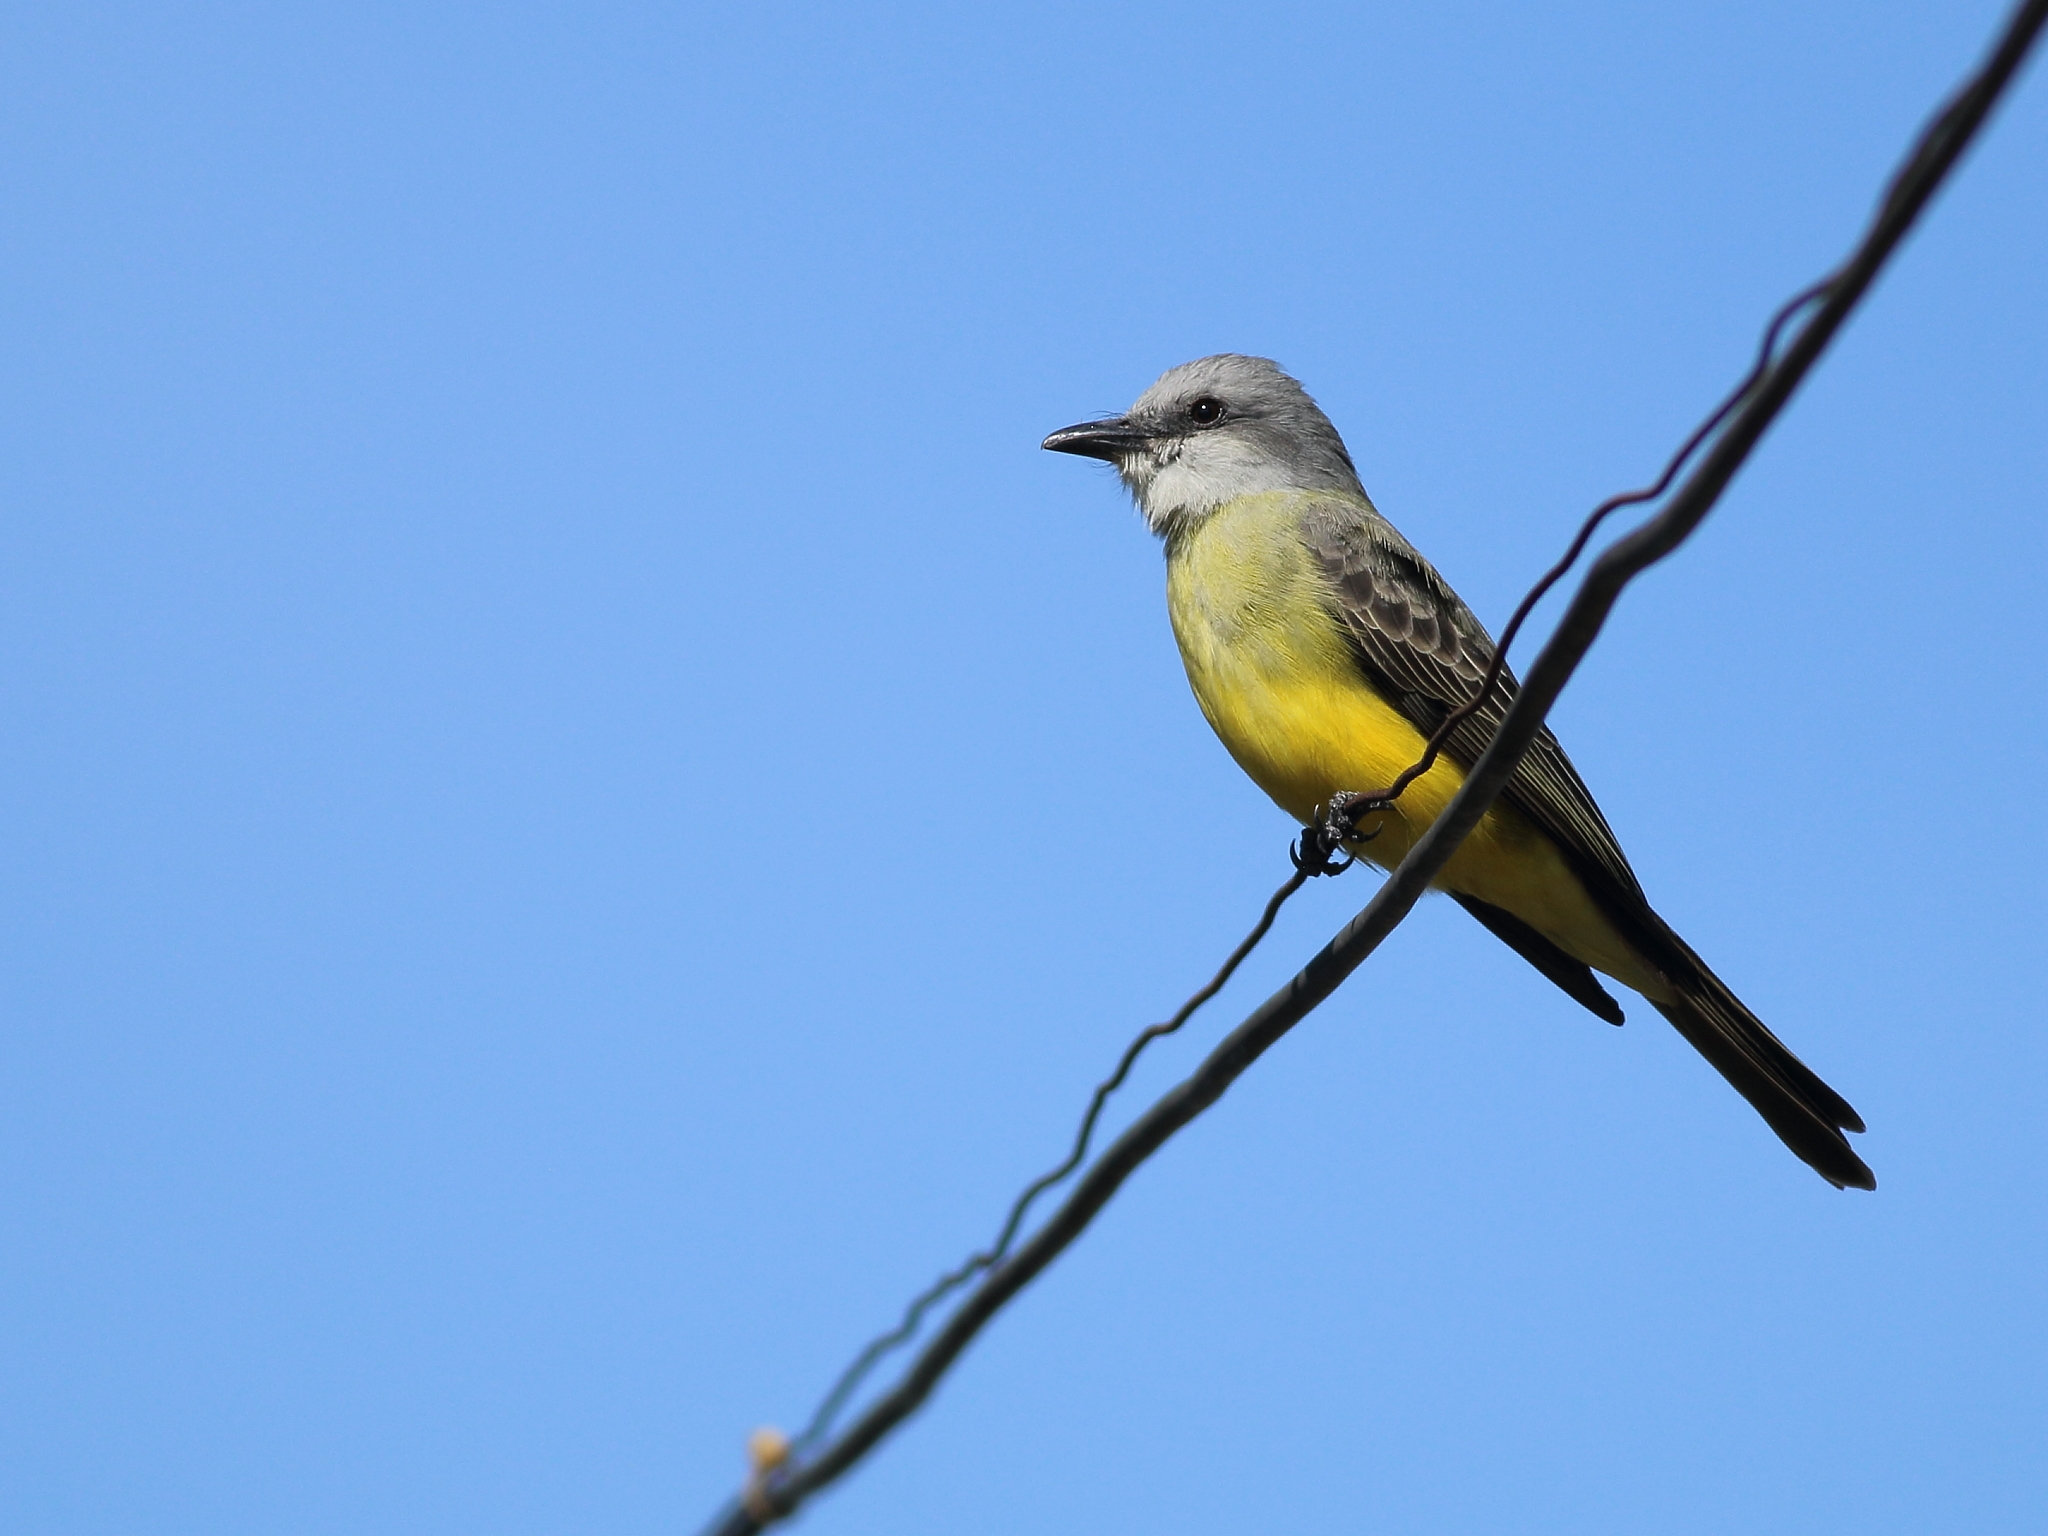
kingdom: Animalia
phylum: Chordata
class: Aves
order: Passeriformes
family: Tyrannidae
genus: Tyrannus
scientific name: Tyrannus melancholicus
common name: Tropical kingbird
